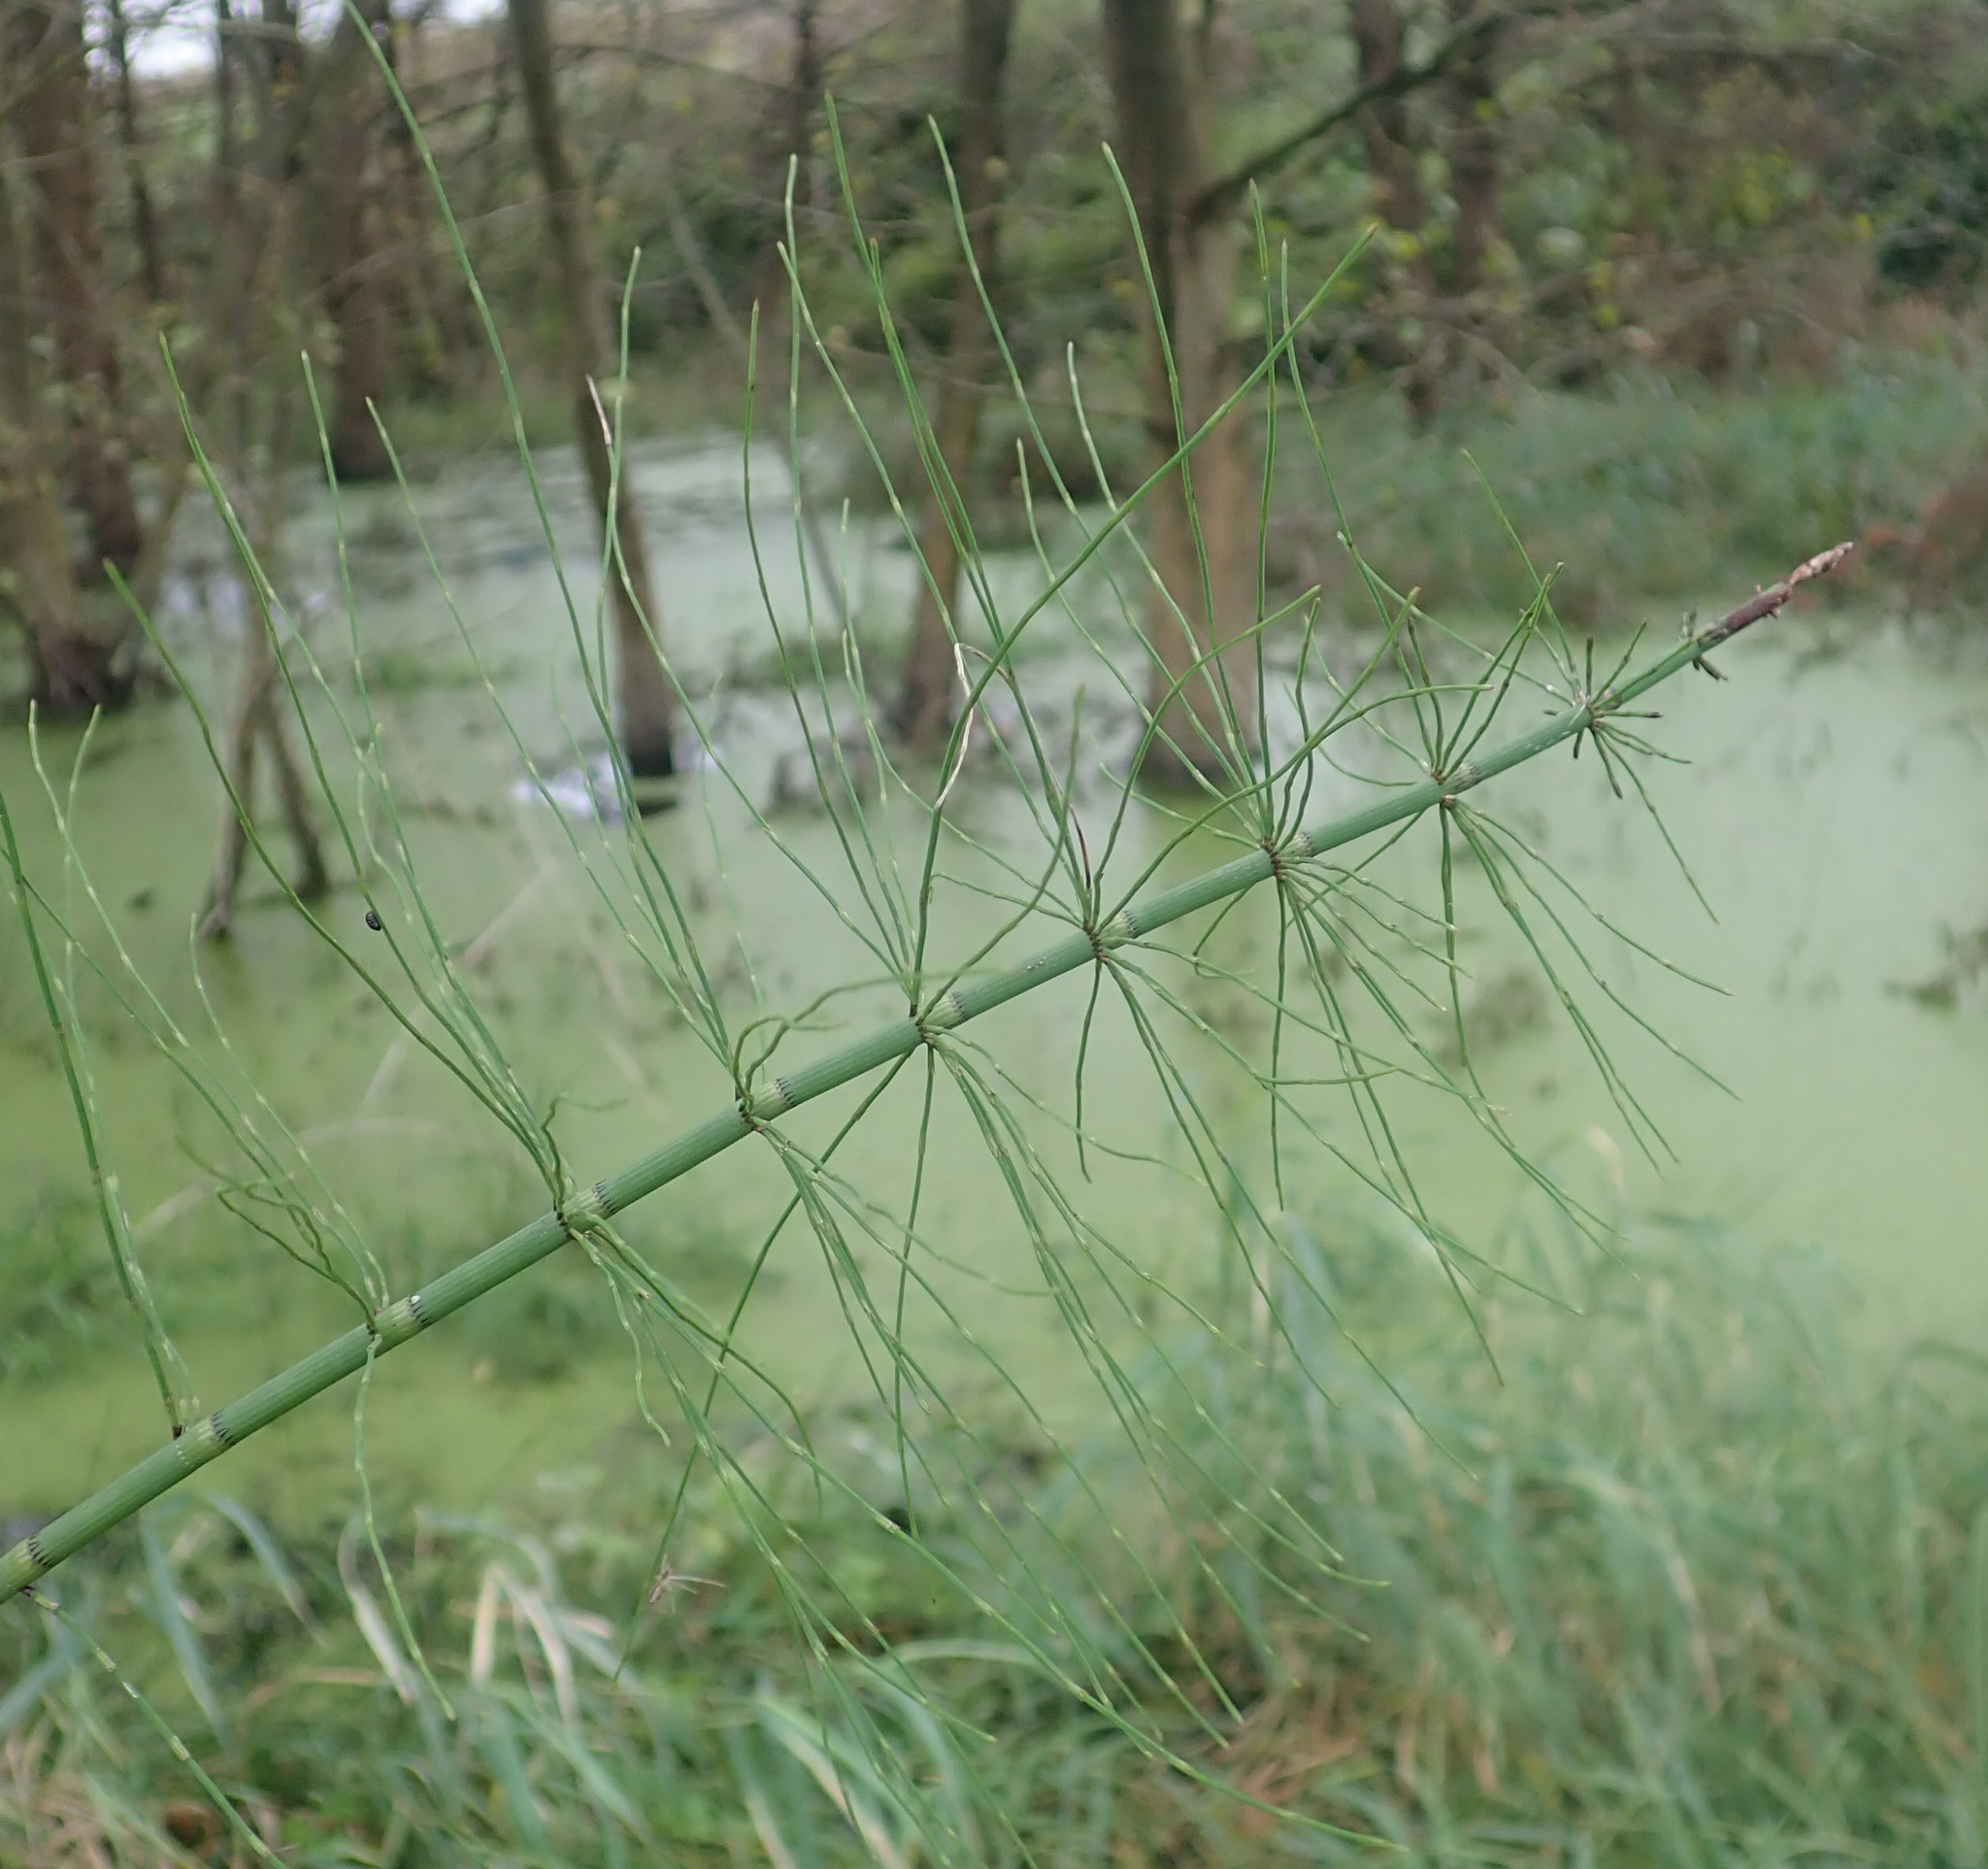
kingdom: Plantae
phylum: Tracheophyta
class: Polypodiopsida
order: Equisetales
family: Equisetaceae
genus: Equisetum
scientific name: Equisetum fluviatile
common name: Water horsetail
